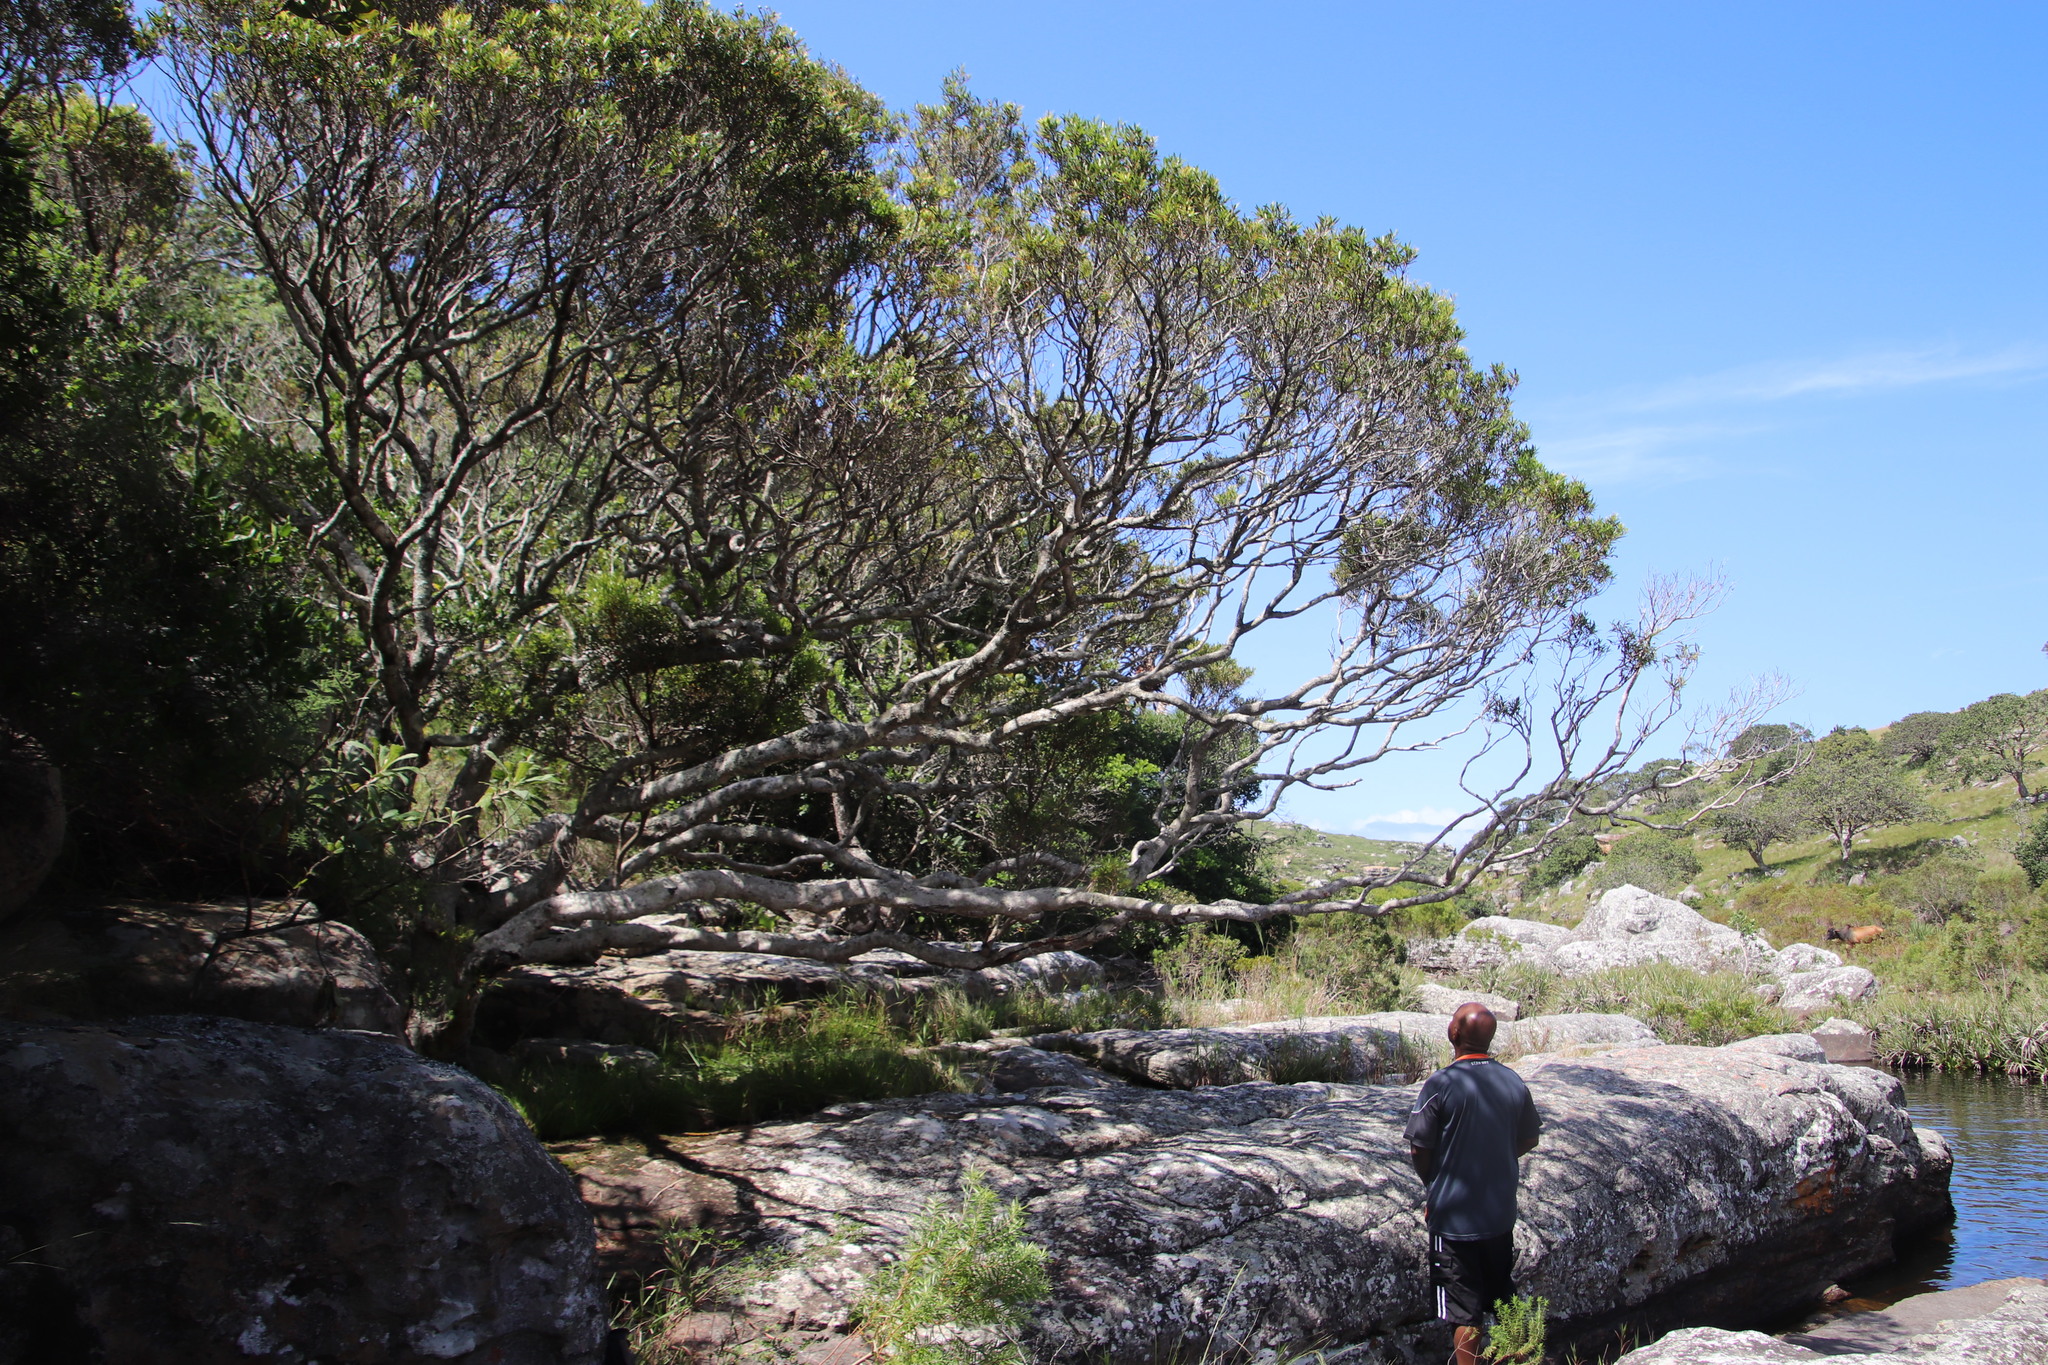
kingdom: Plantae
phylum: Tracheophyta
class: Magnoliopsida
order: Myrtales
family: Myrtaceae
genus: Syzygium
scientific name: Syzygium pondoense
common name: Pondo waterberry
